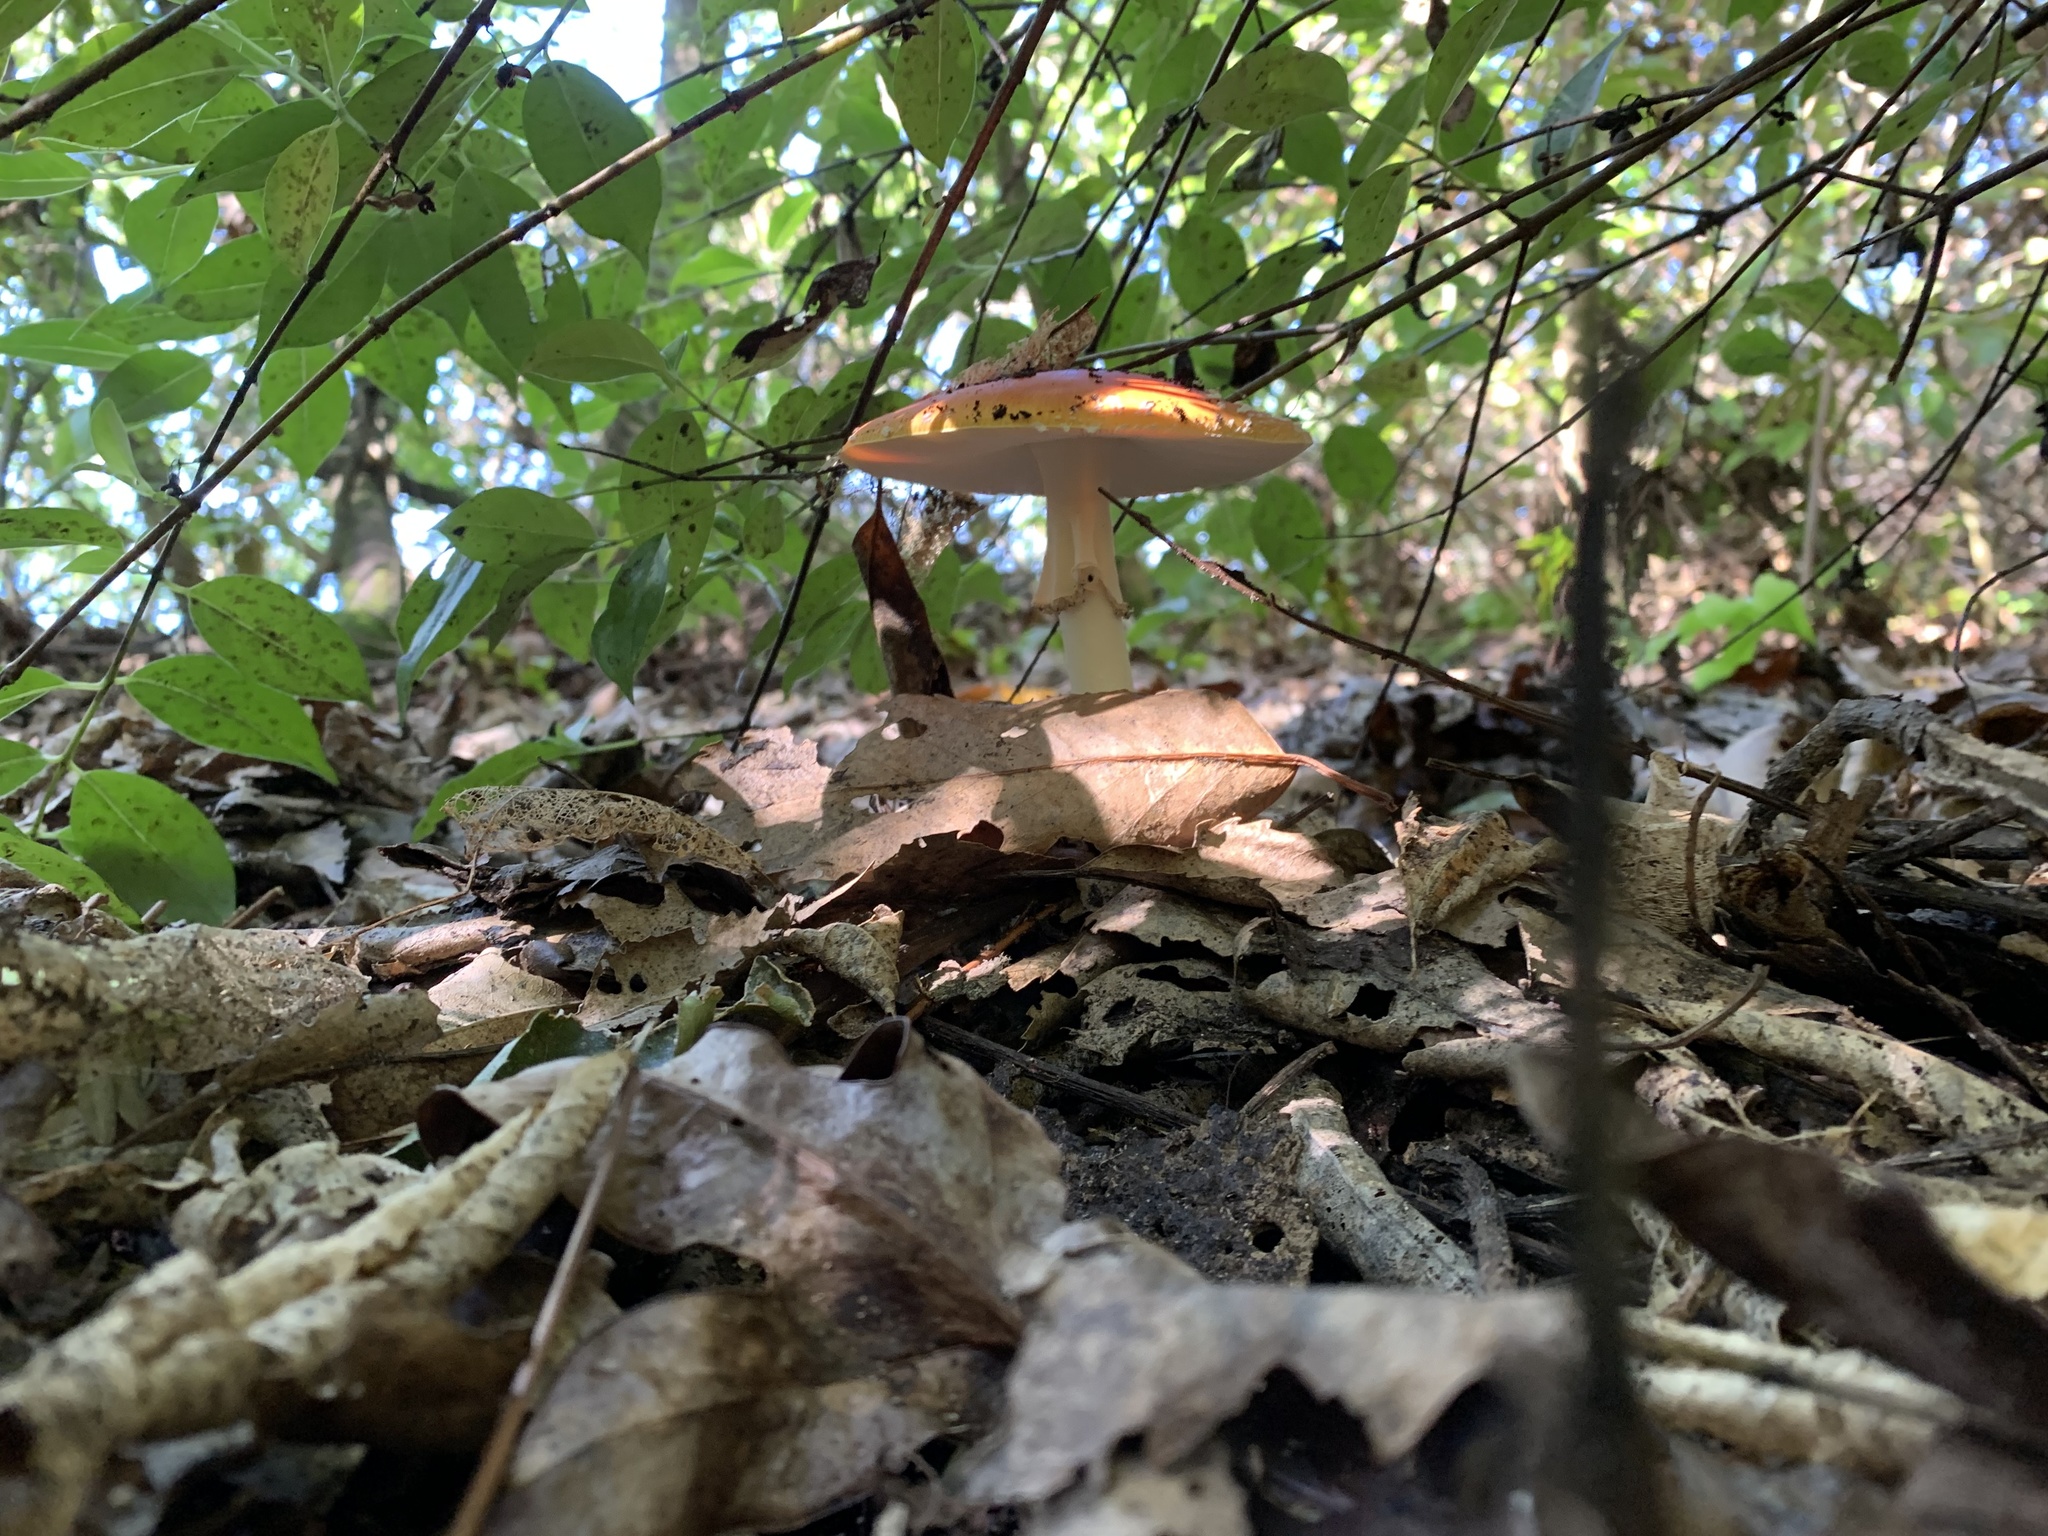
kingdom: Fungi
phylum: Basidiomycota
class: Agaricomycetes
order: Agaricales
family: Amanitaceae
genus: Amanita
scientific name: Amanita muscaria
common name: Fly agaric
